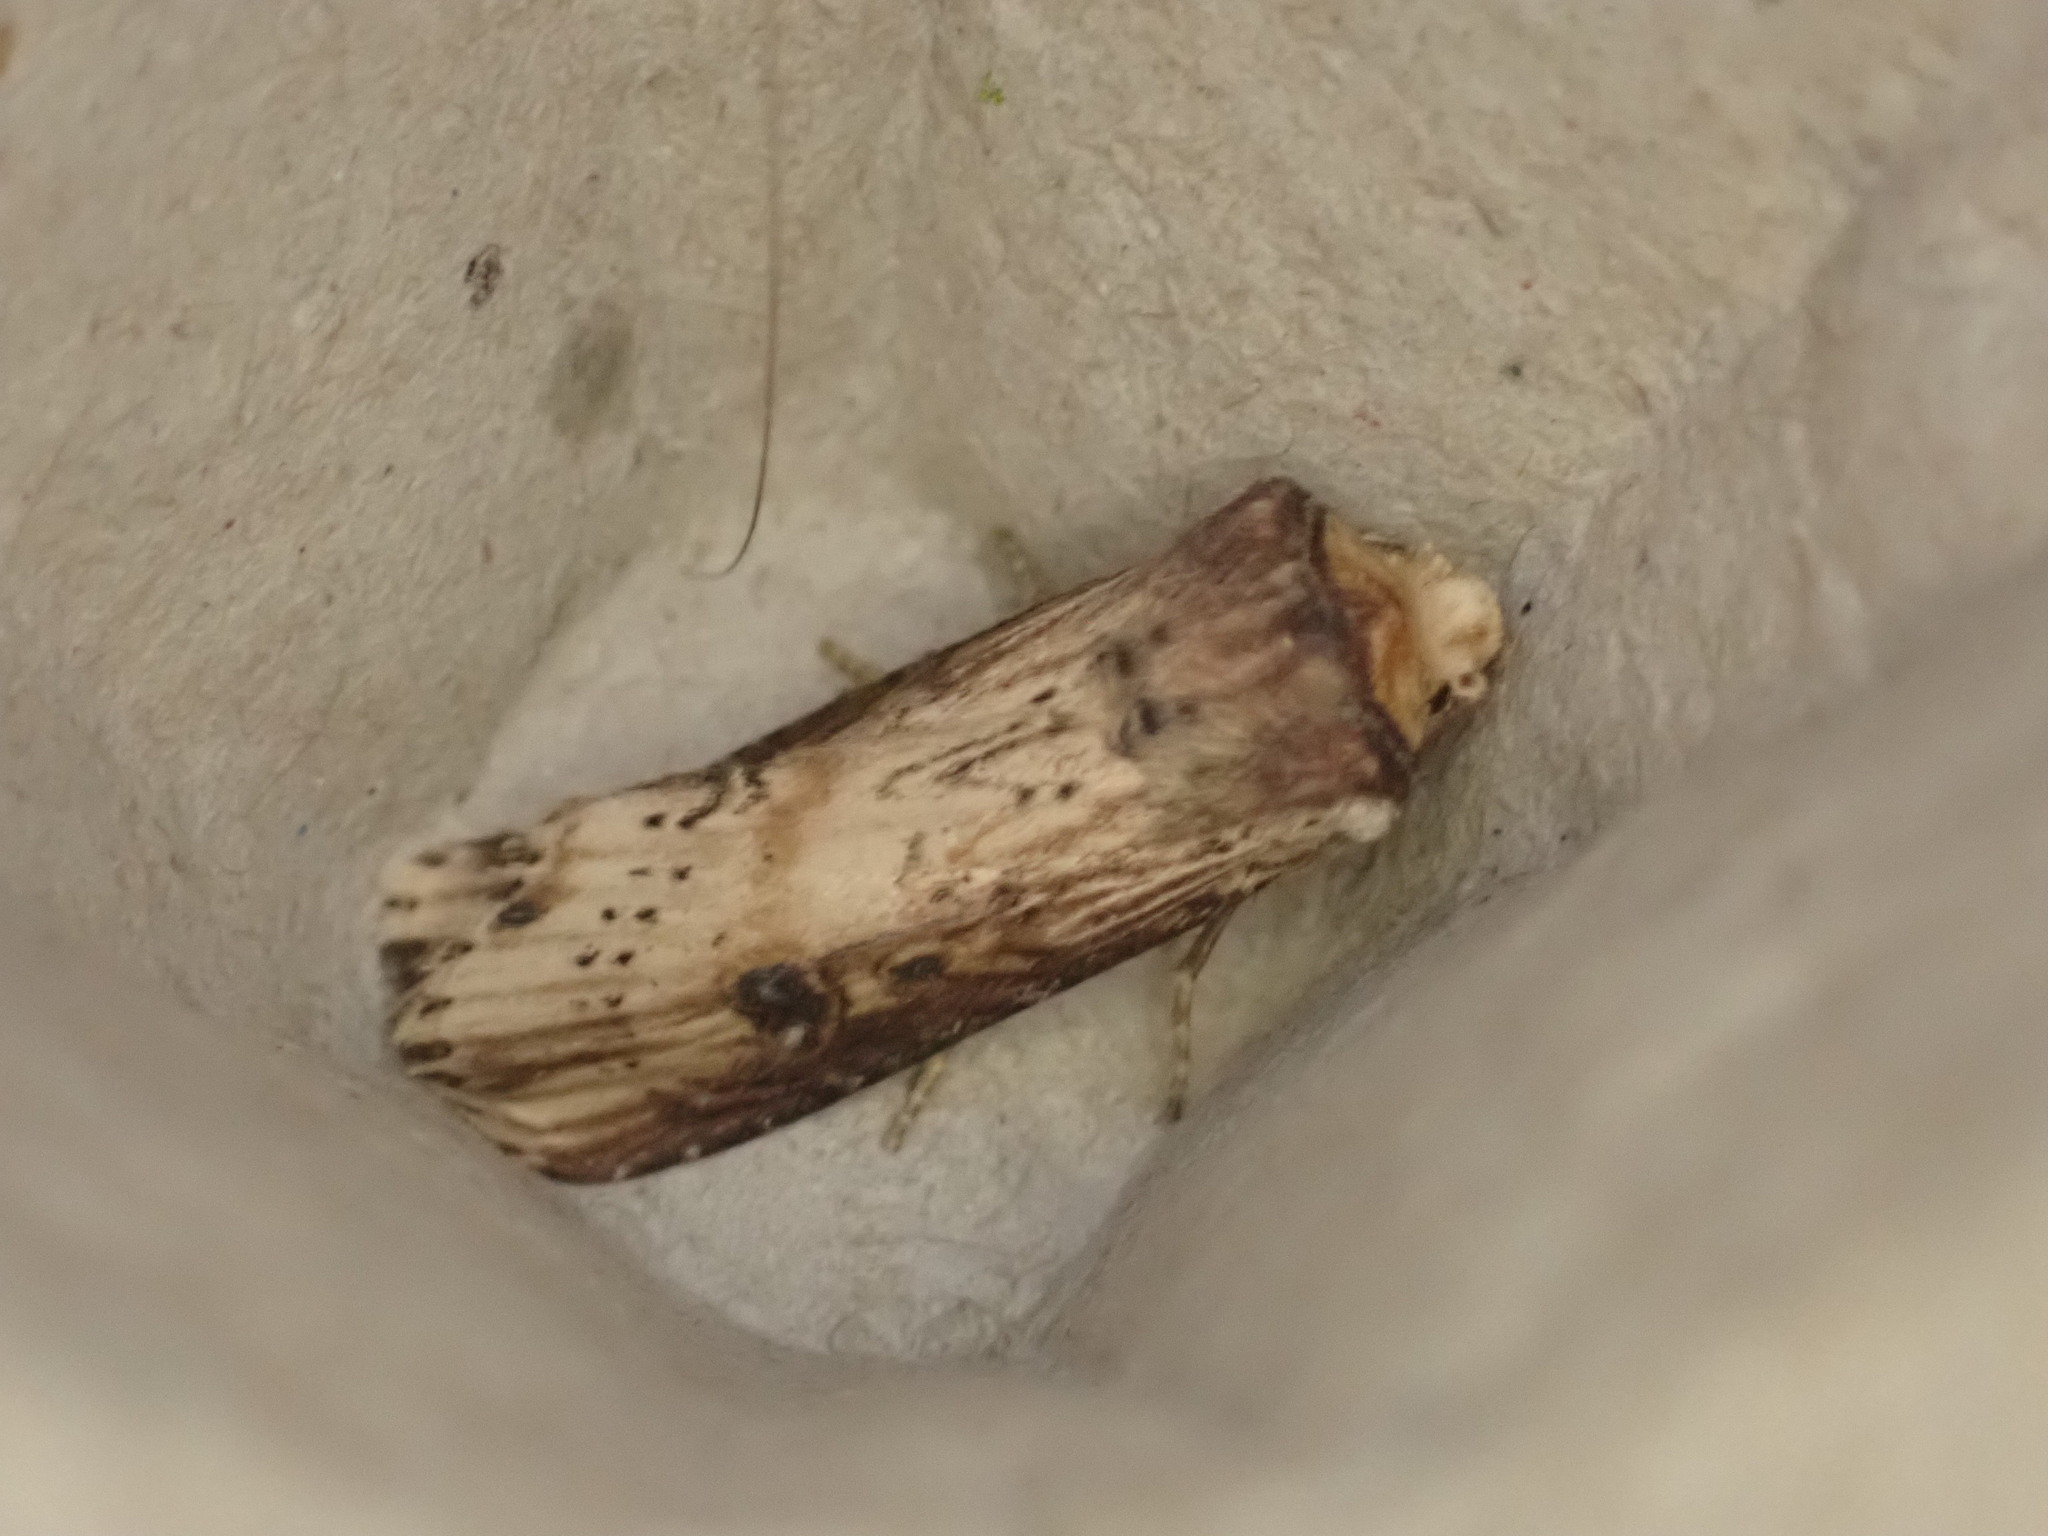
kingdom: Animalia
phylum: Arthropoda
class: Insecta
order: Lepidoptera
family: Noctuidae
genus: Axylia
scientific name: Axylia putris
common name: Flame
